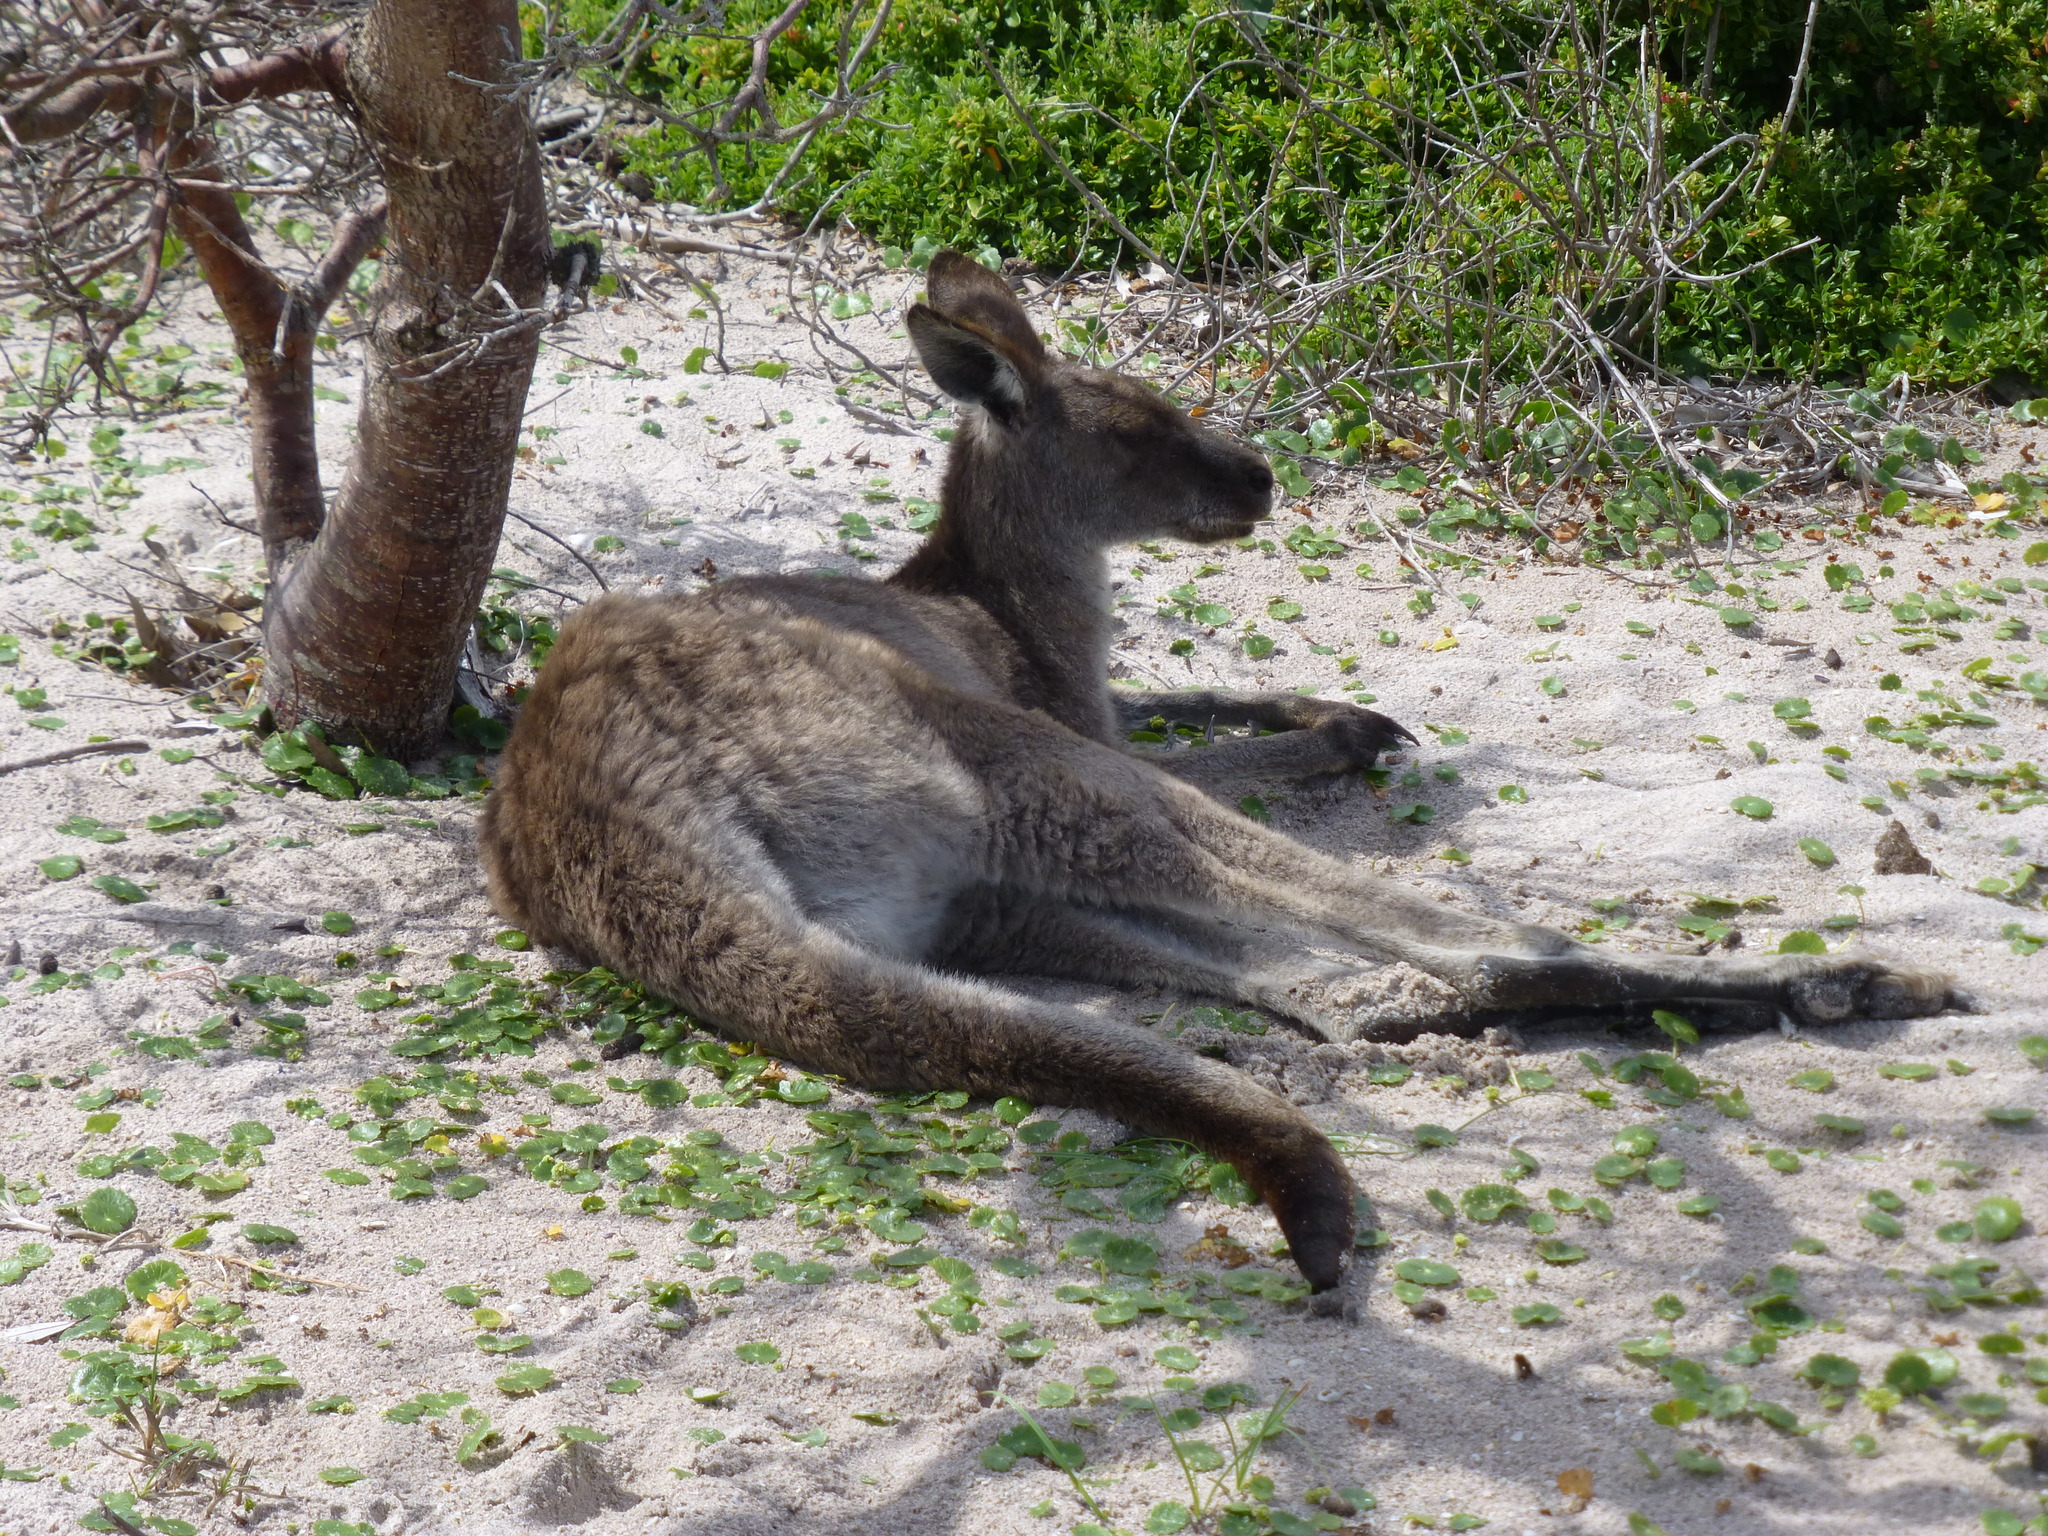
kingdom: Animalia
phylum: Chordata
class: Mammalia
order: Diprotodontia
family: Macropodidae
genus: Macropus
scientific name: Macropus giganteus
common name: Eastern grey kangaroo
